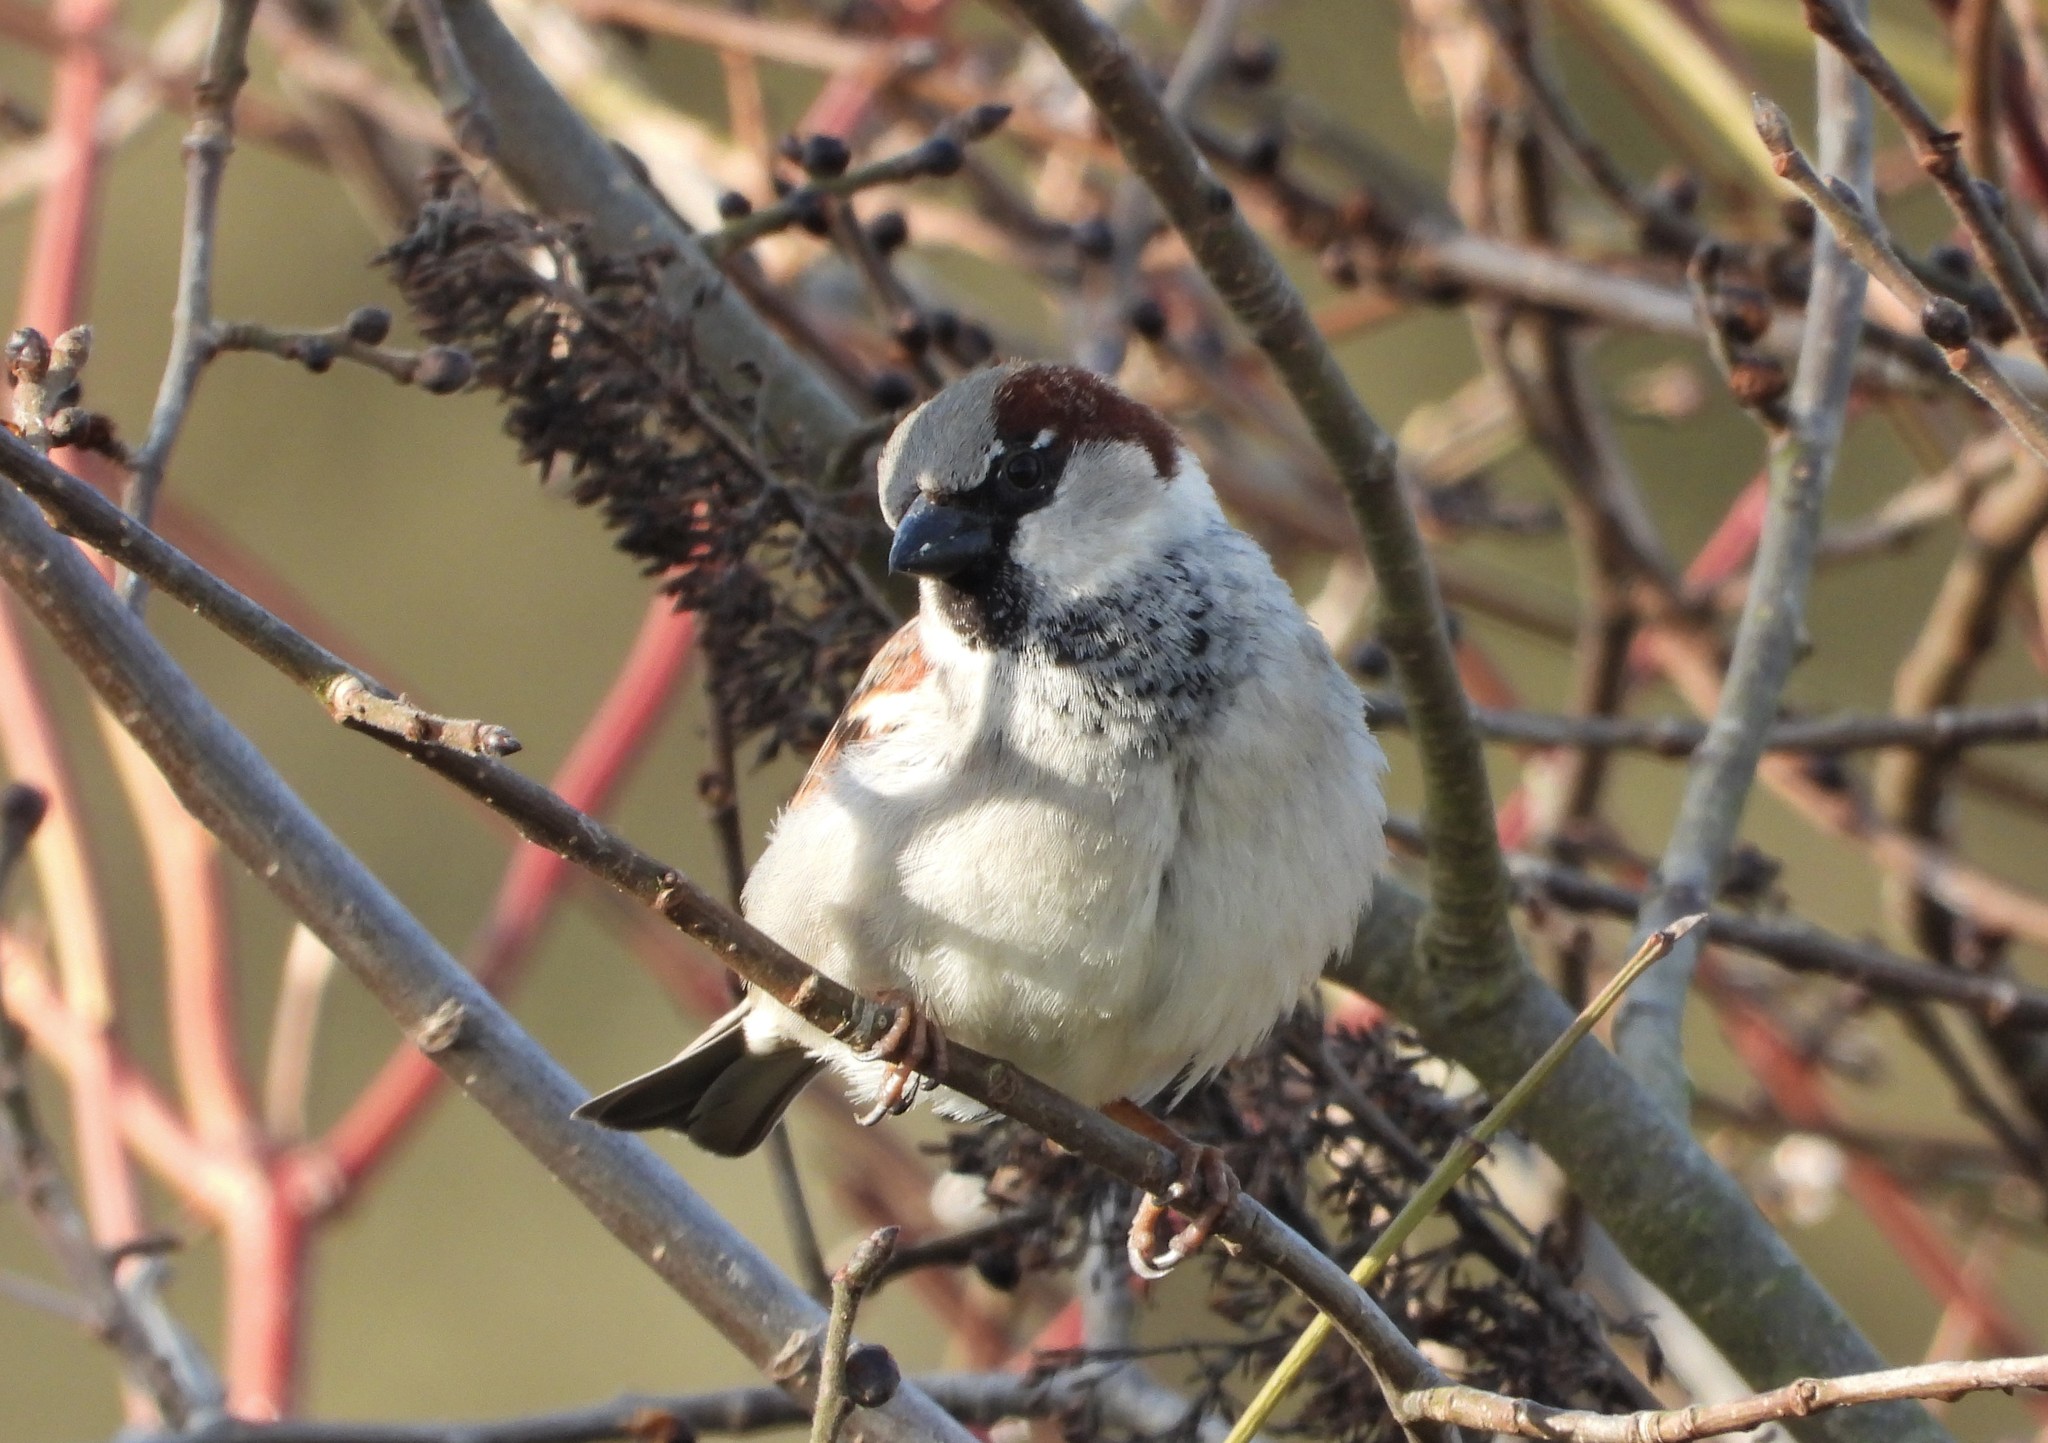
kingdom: Animalia
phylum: Chordata
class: Aves
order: Passeriformes
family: Passeridae
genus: Passer
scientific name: Passer domesticus
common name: House sparrow
